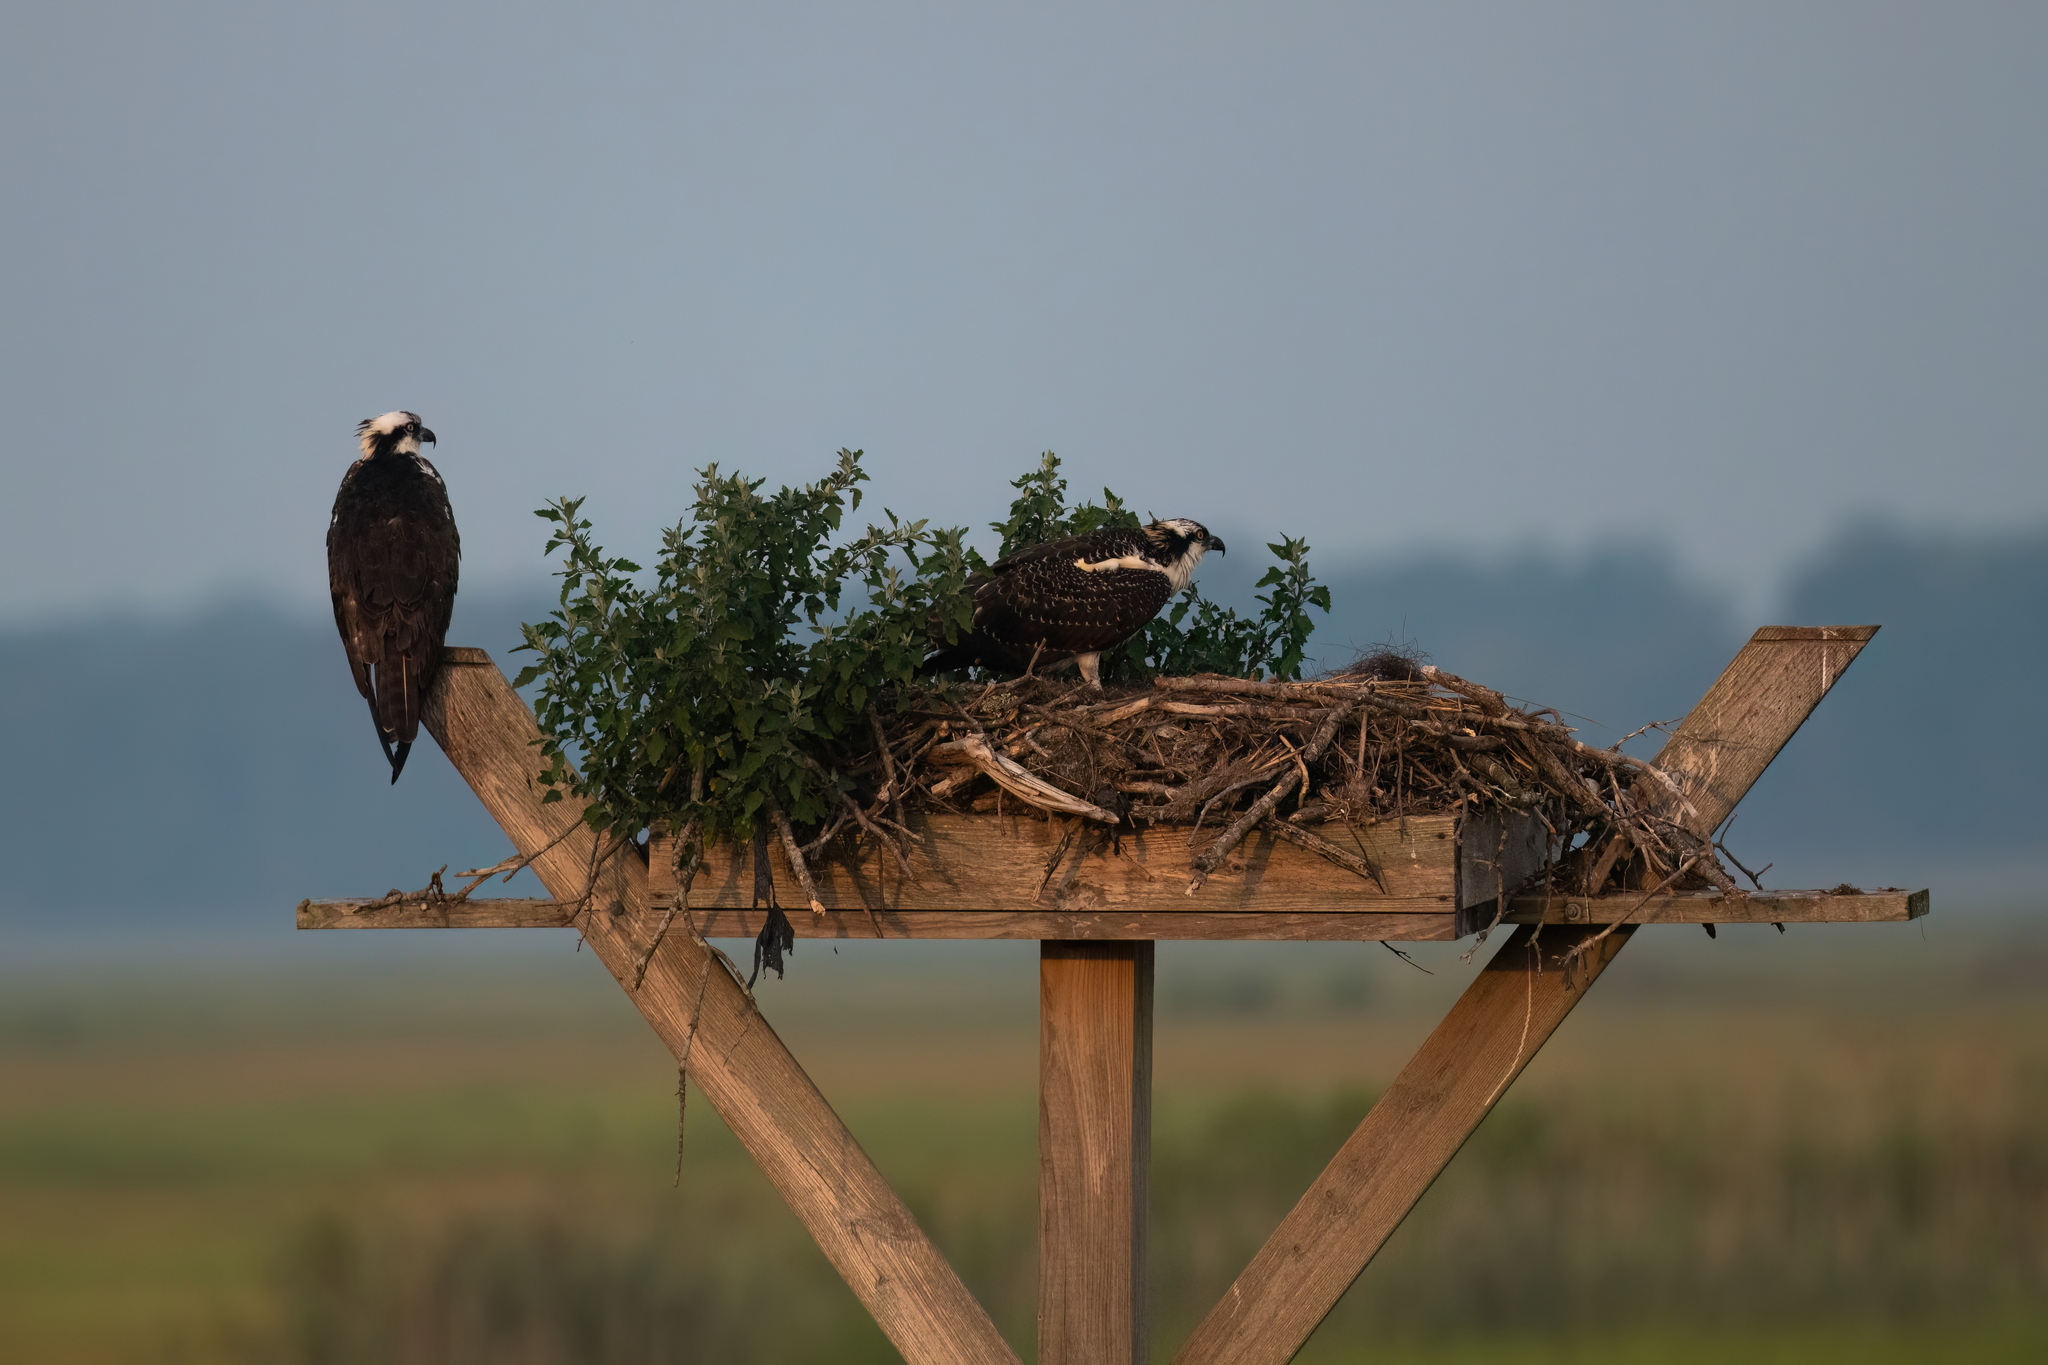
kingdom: Animalia
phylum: Chordata
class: Aves
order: Accipitriformes
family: Pandionidae
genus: Pandion
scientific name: Pandion haliaetus
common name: Osprey
